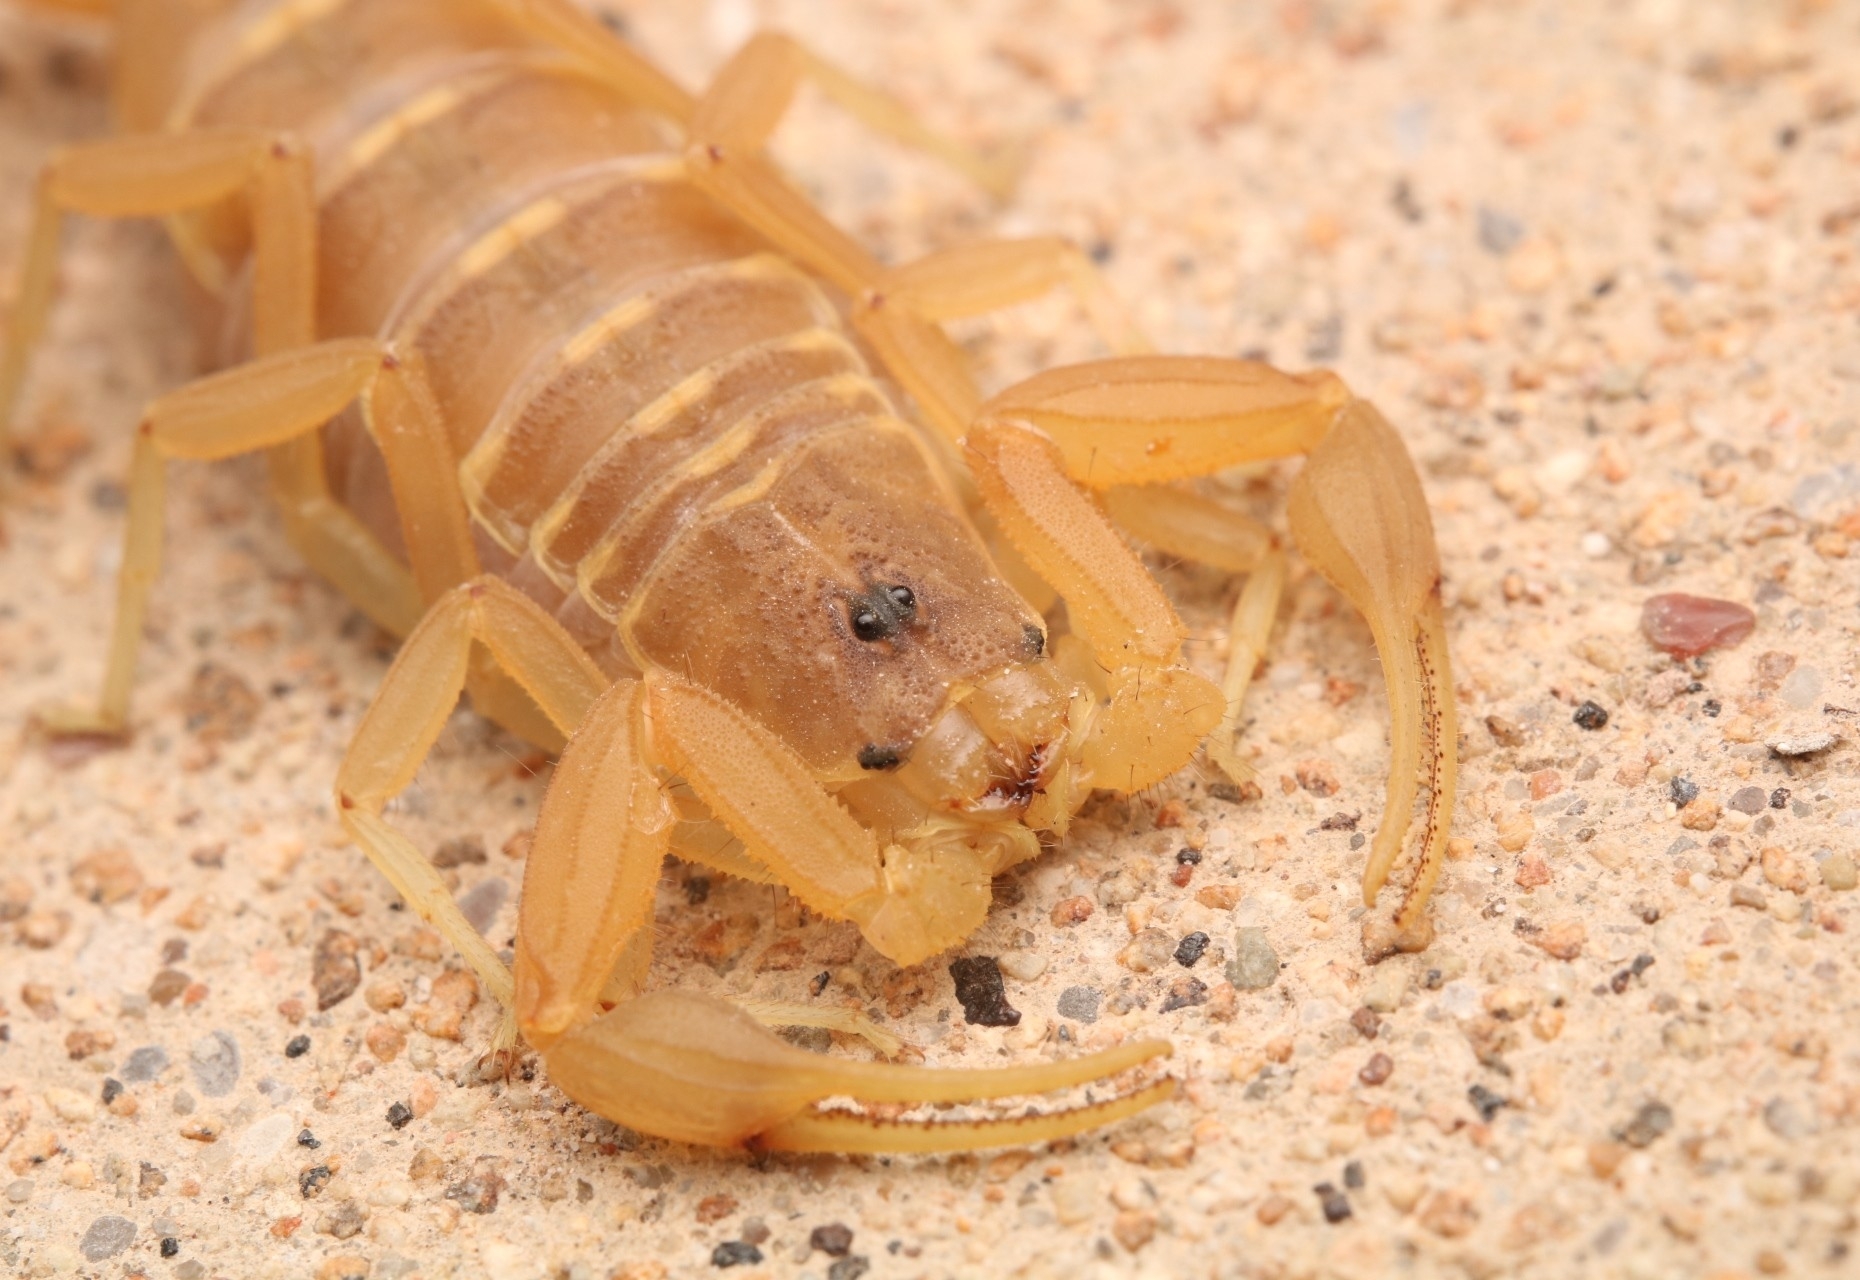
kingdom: Animalia
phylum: Arthropoda
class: Arachnida
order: Scorpiones
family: Buthidae
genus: Centruroides
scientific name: Centruroides vittatus
